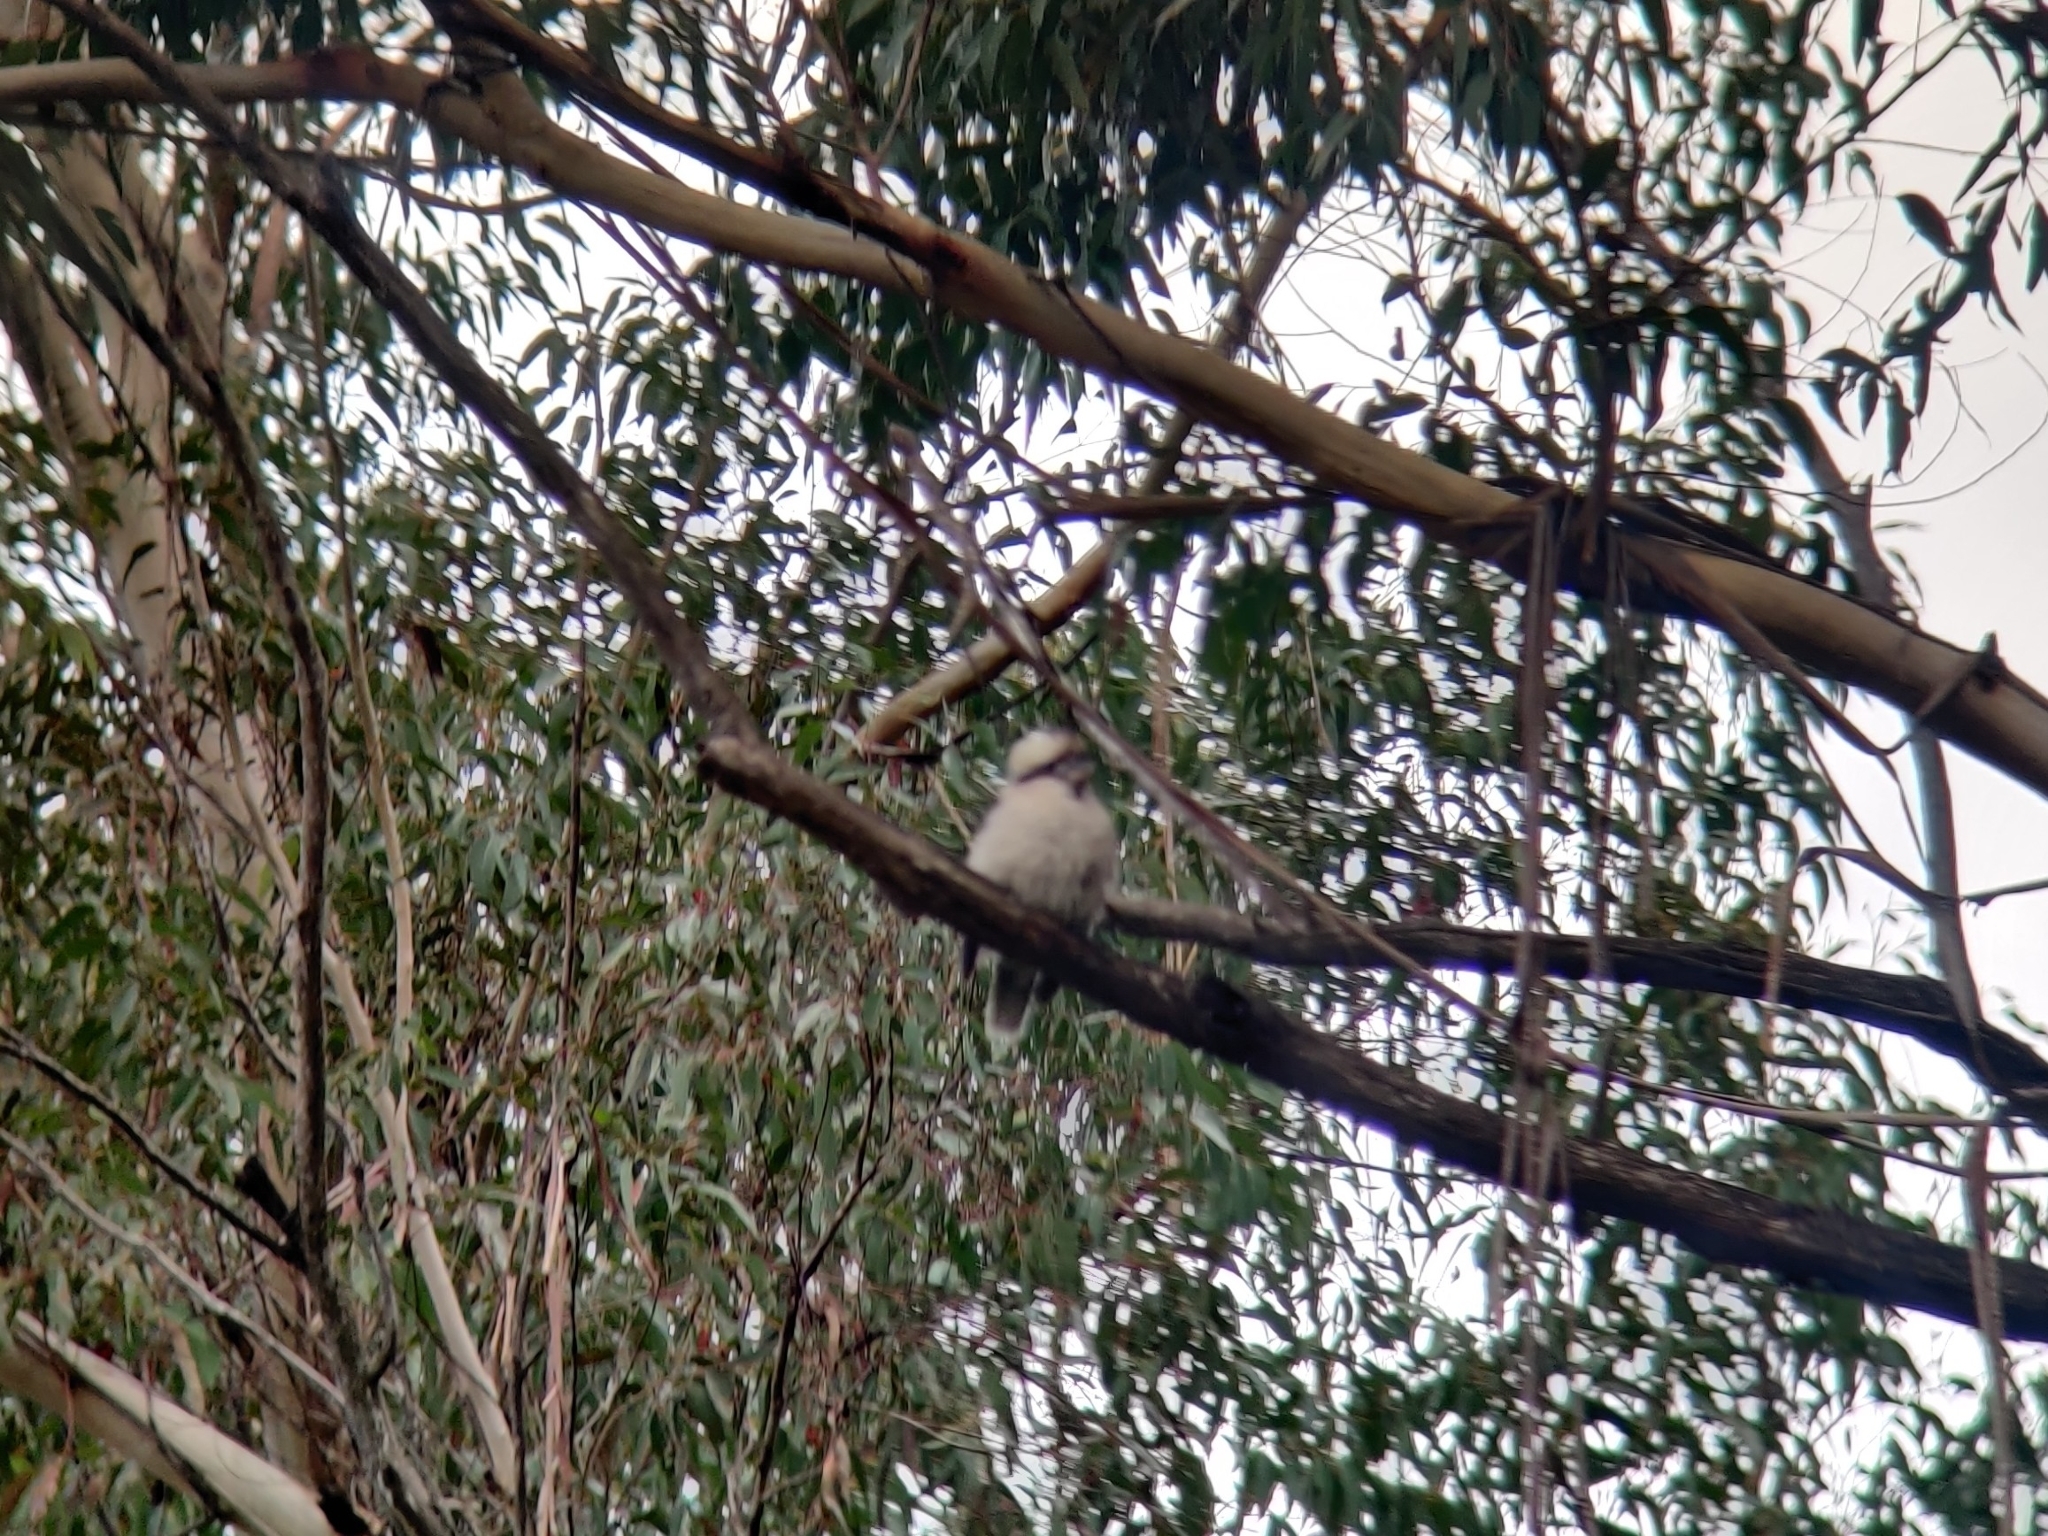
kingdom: Animalia
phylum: Chordata
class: Aves
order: Coraciiformes
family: Alcedinidae
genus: Dacelo
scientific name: Dacelo novaeguineae
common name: Laughing kookaburra
